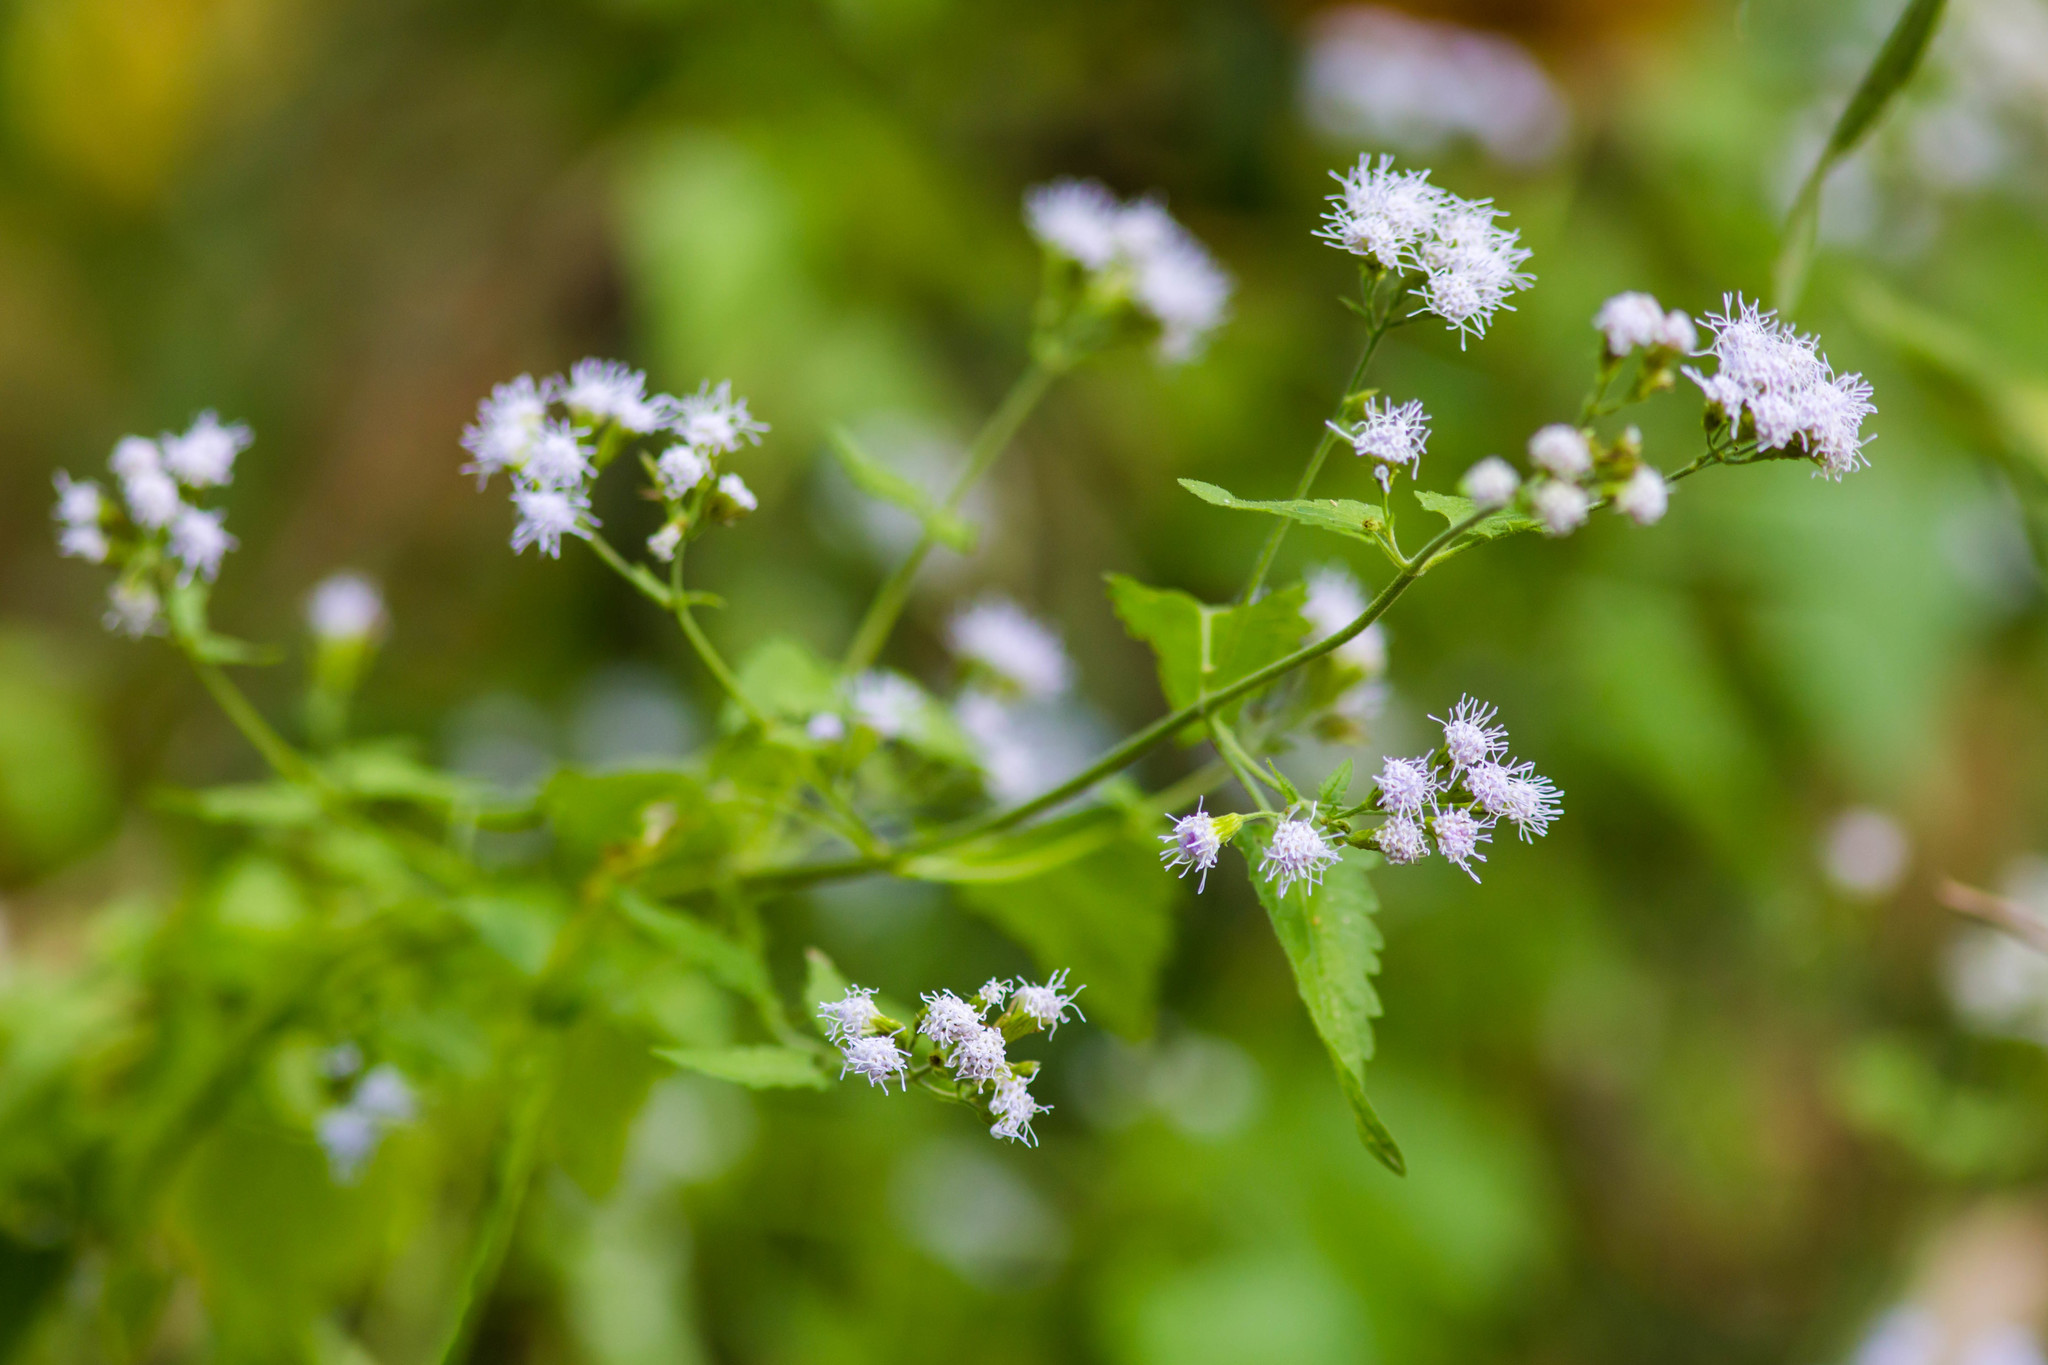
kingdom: Plantae
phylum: Tracheophyta
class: Magnoliopsida
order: Asterales
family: Asteraceae
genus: Fleischmannia
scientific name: Fleischmannia incarnata
